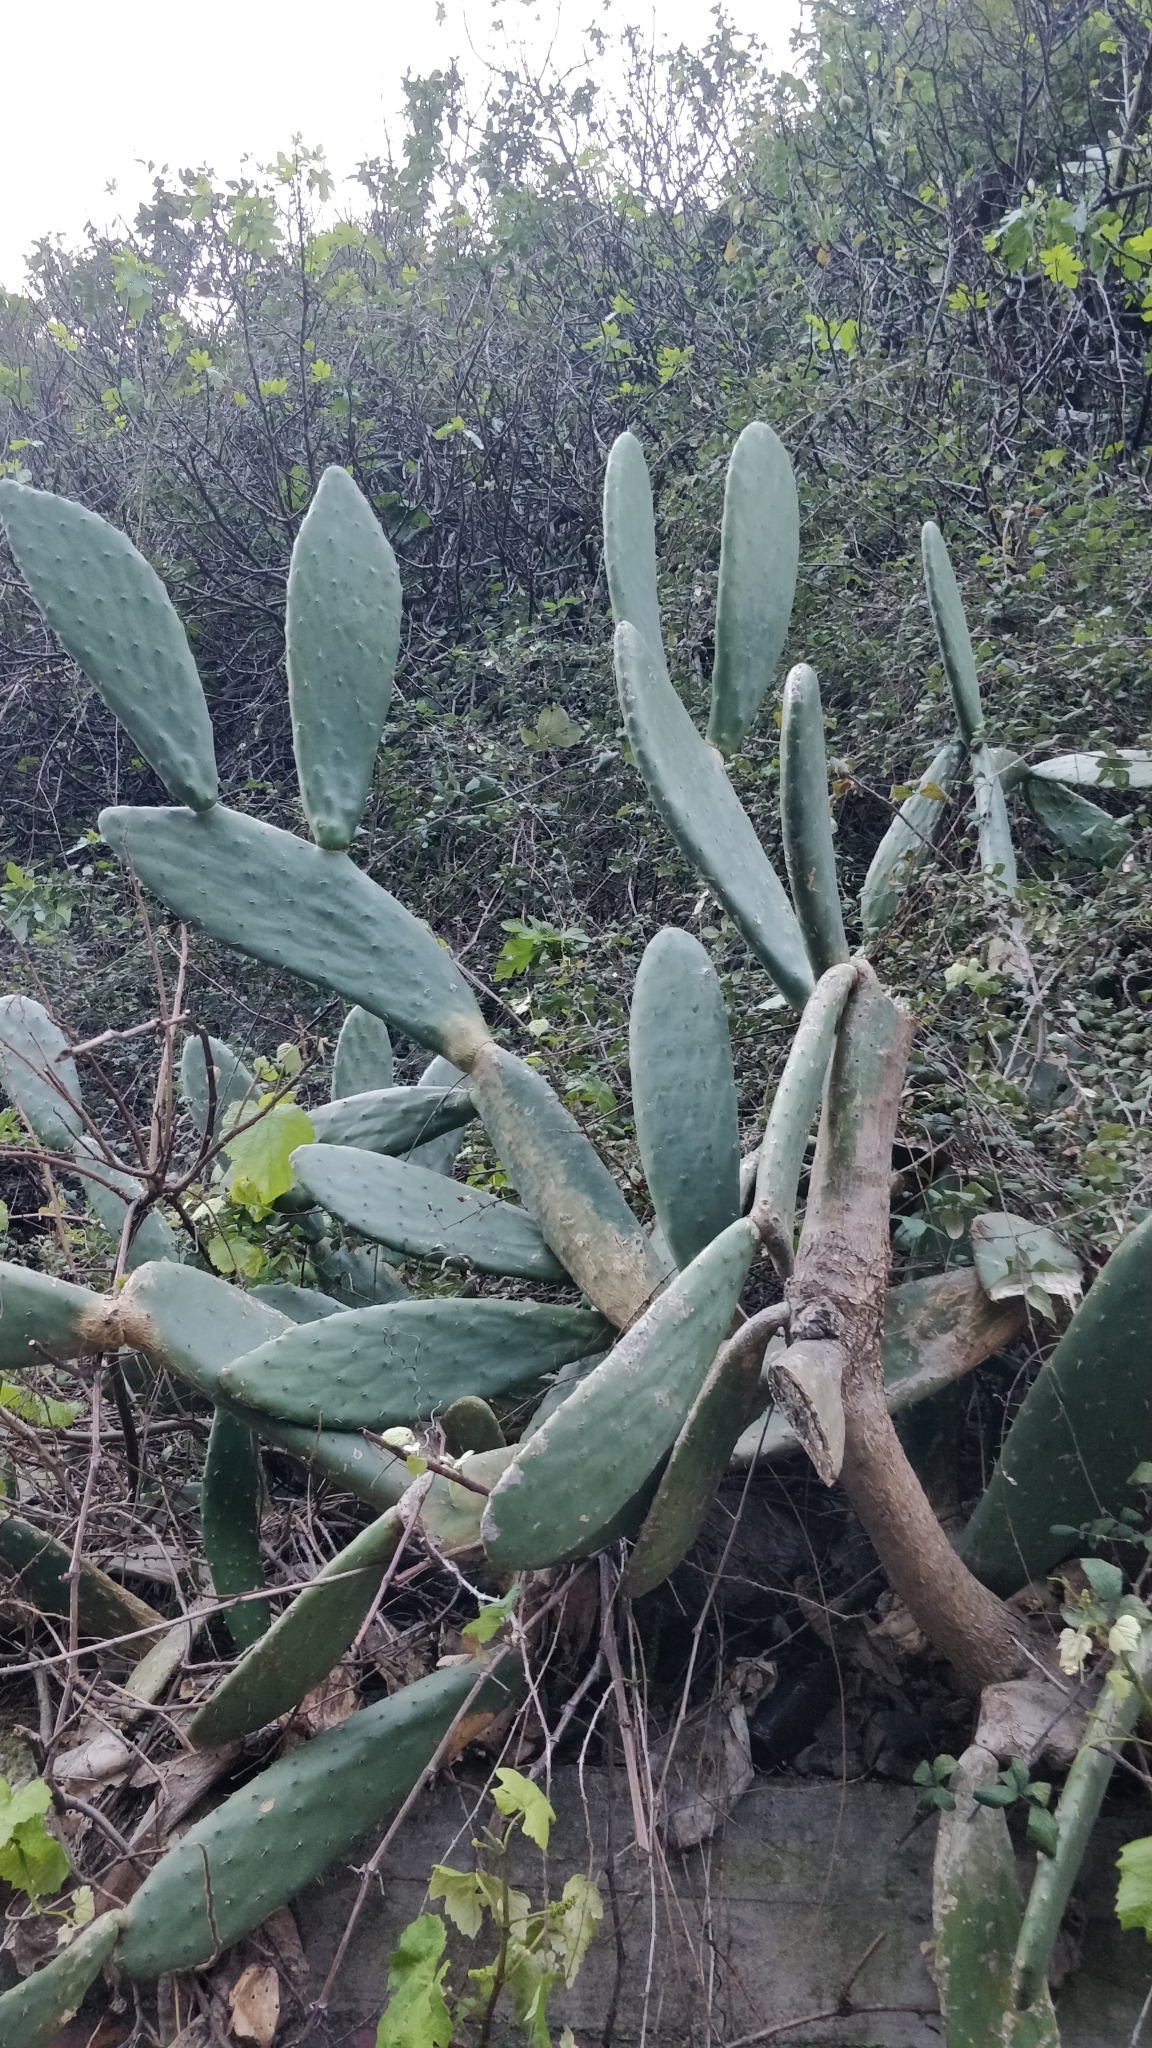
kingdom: Plantae
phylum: Tracheophyta
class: Magnoliopsida
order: Caryophyllales
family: Cactaceae
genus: Opuntia
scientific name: Opuntia ficus-indica
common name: Barbary fig
